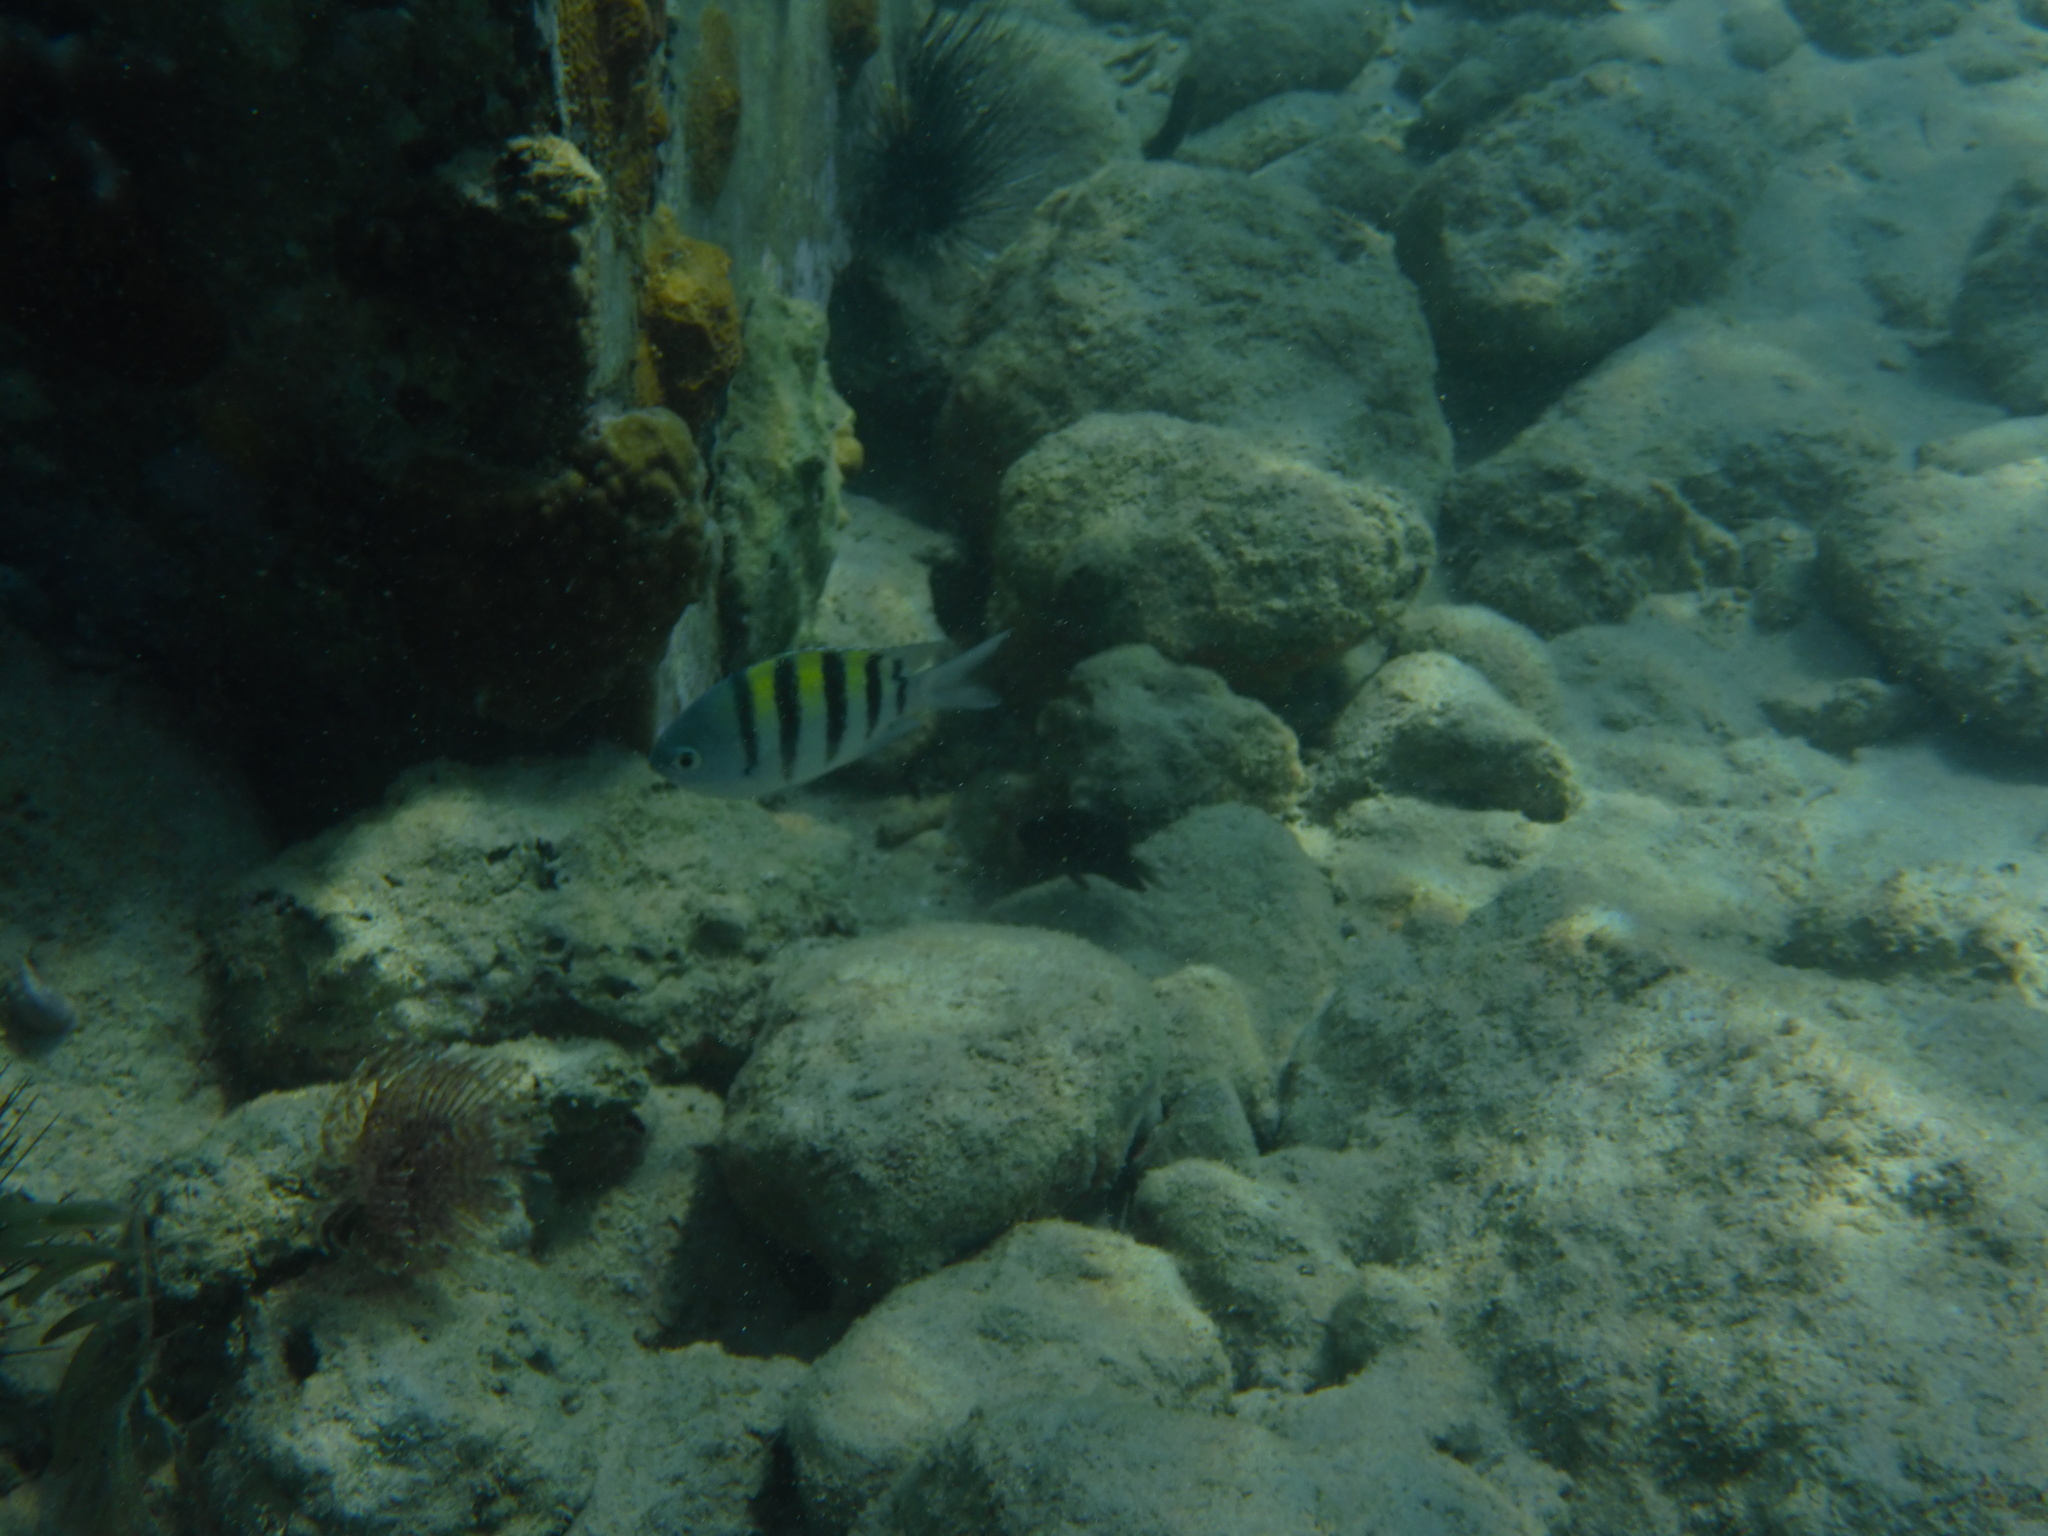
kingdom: Animalia
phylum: Chordata
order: Perciformes
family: Pomacentridae
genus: Abudefduf
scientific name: Abudefduf saxatilis
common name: Sergeant major
